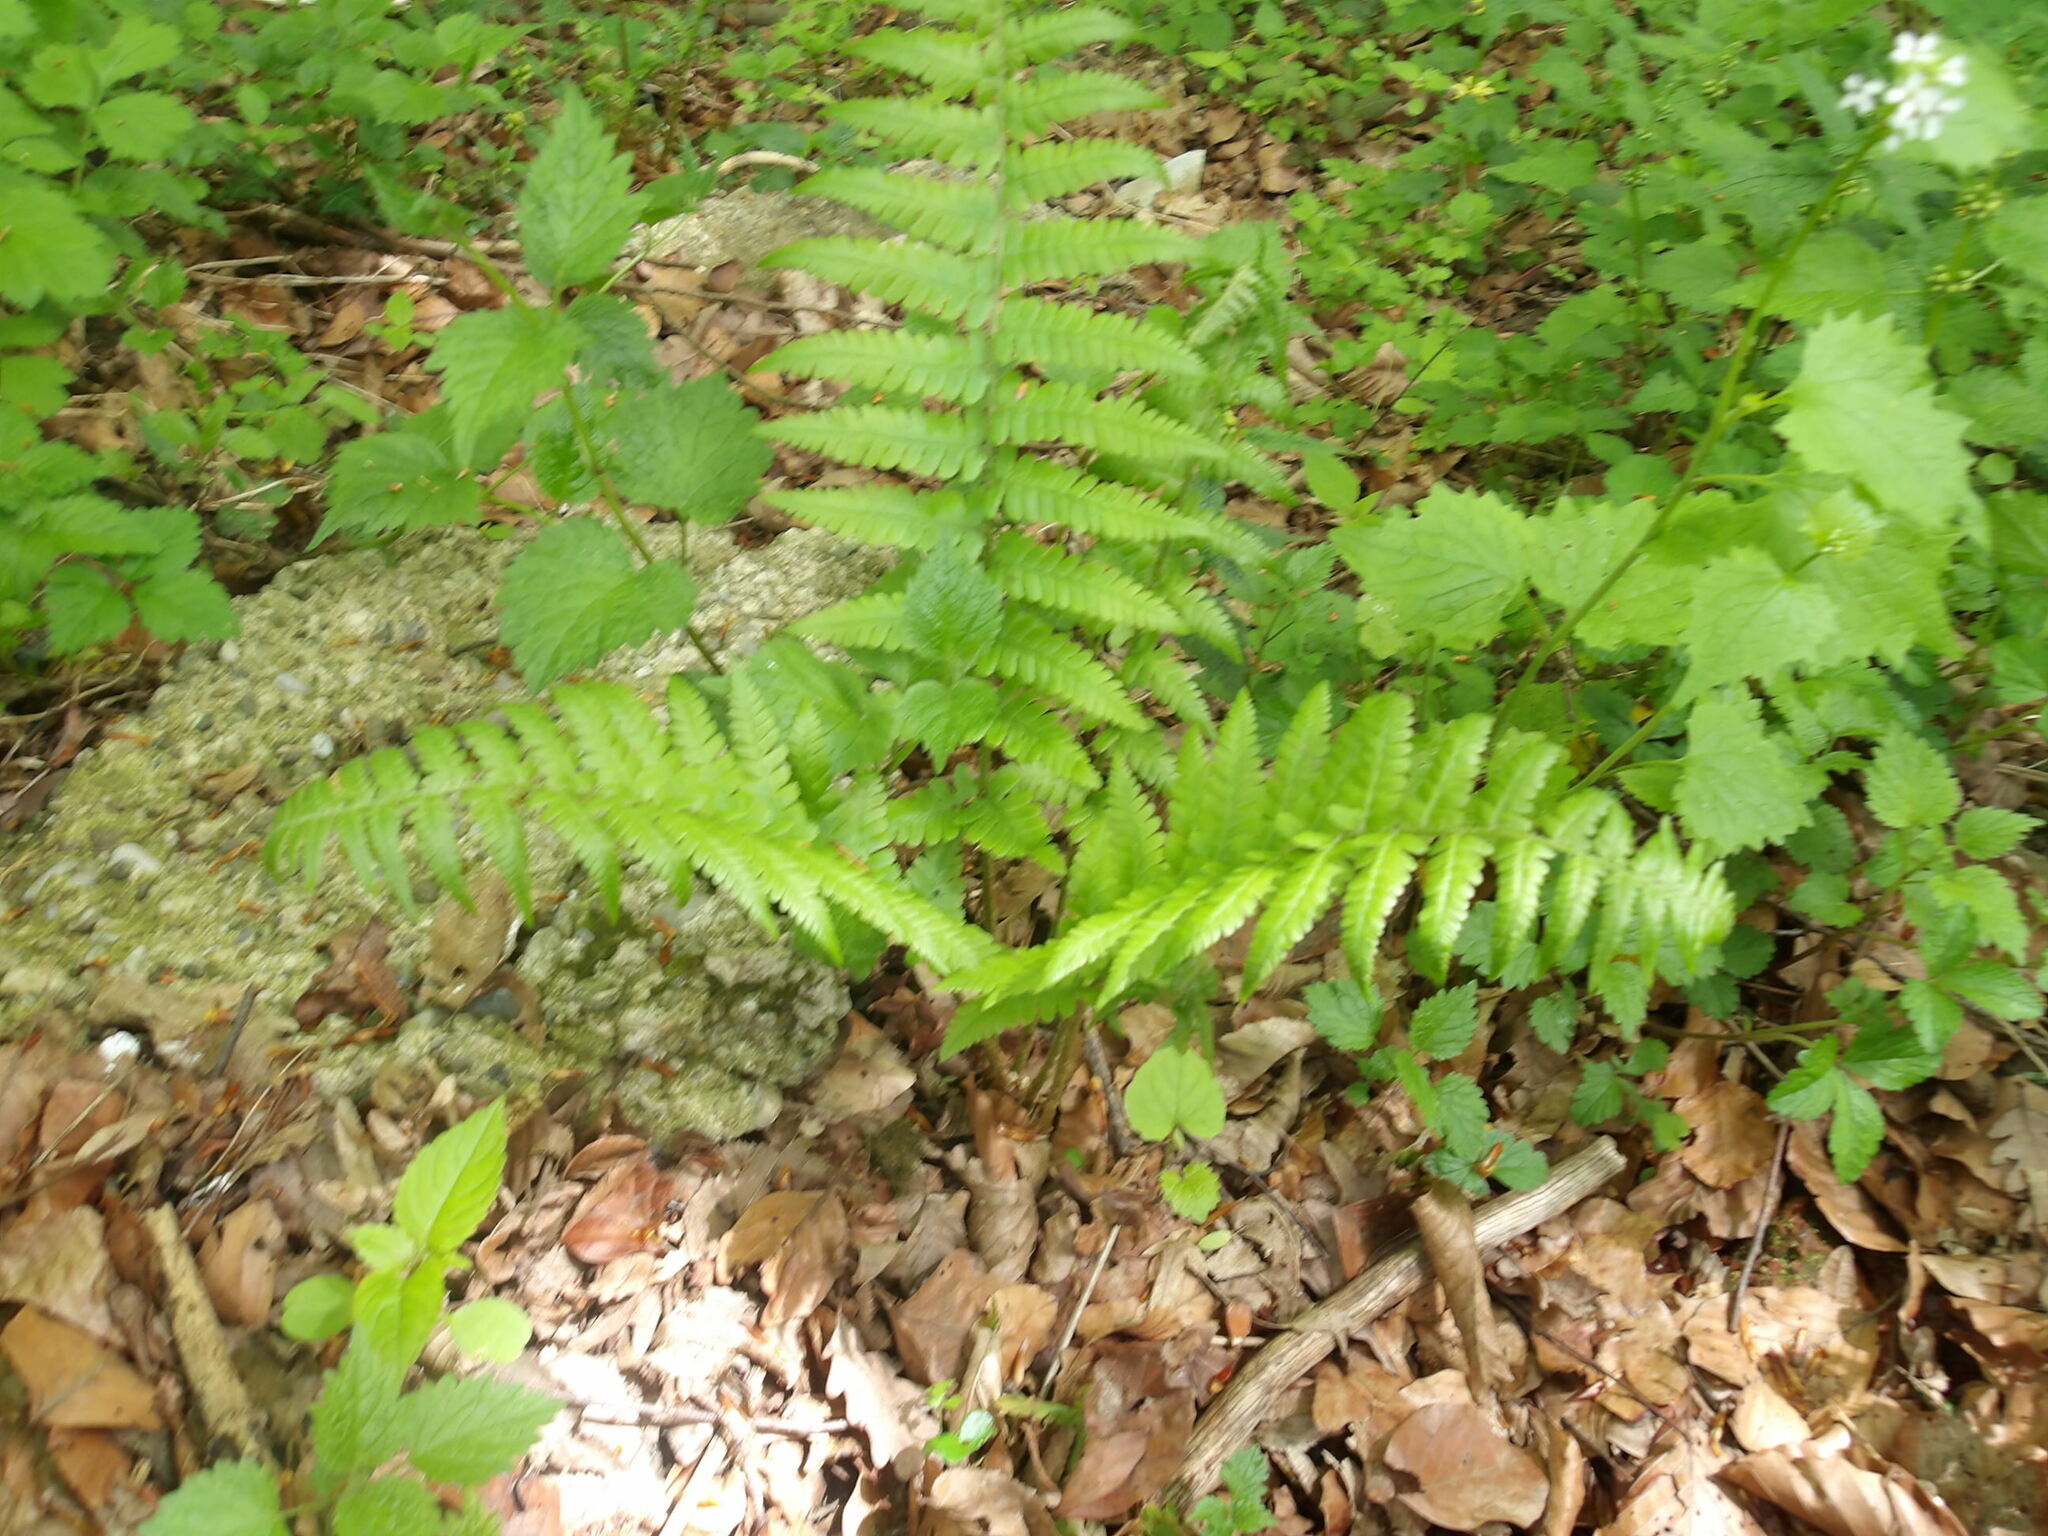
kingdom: Plantae
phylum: Tracheophyta
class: Polypodiopsida
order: Polypodiales
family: Dryopteridaceae
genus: Dryopteris
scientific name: Dryopteris filix-mas
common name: Male fern
